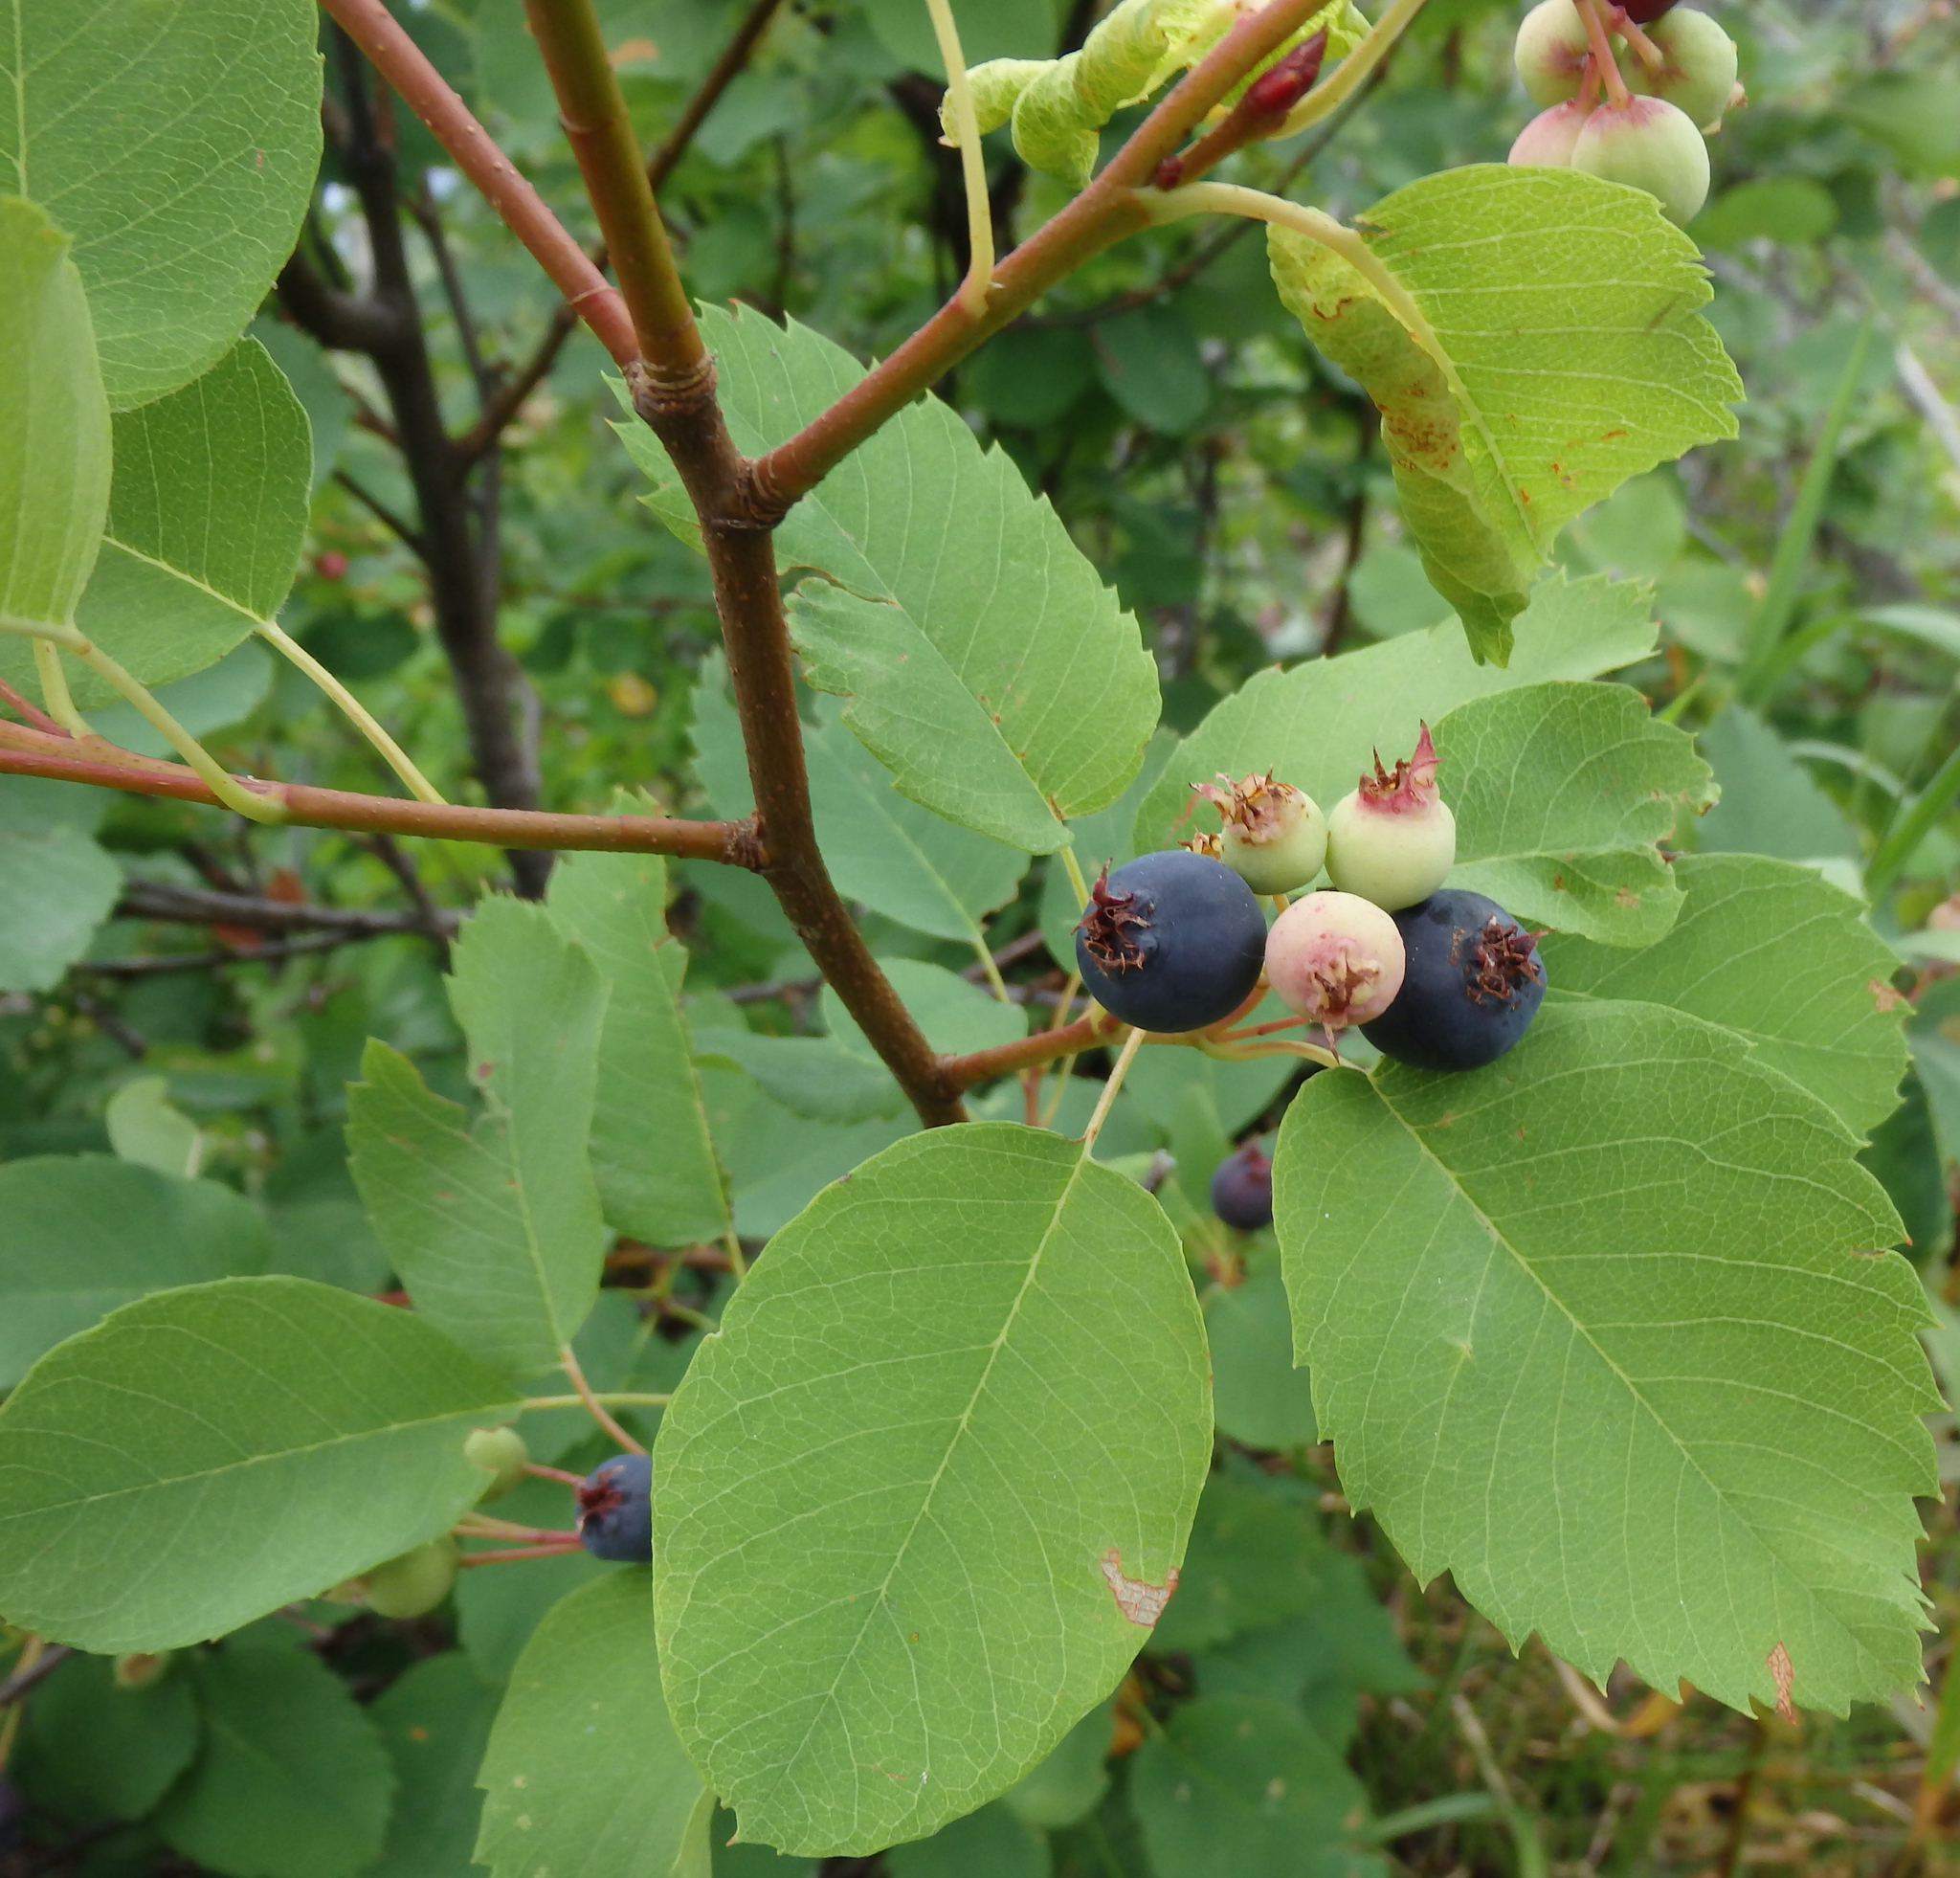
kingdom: Plantae
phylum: Tracheophyta
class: Magnoliopsida
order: Rosales
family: Rosaceae
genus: Amelanchier
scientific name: Amelanchier alnifolia
